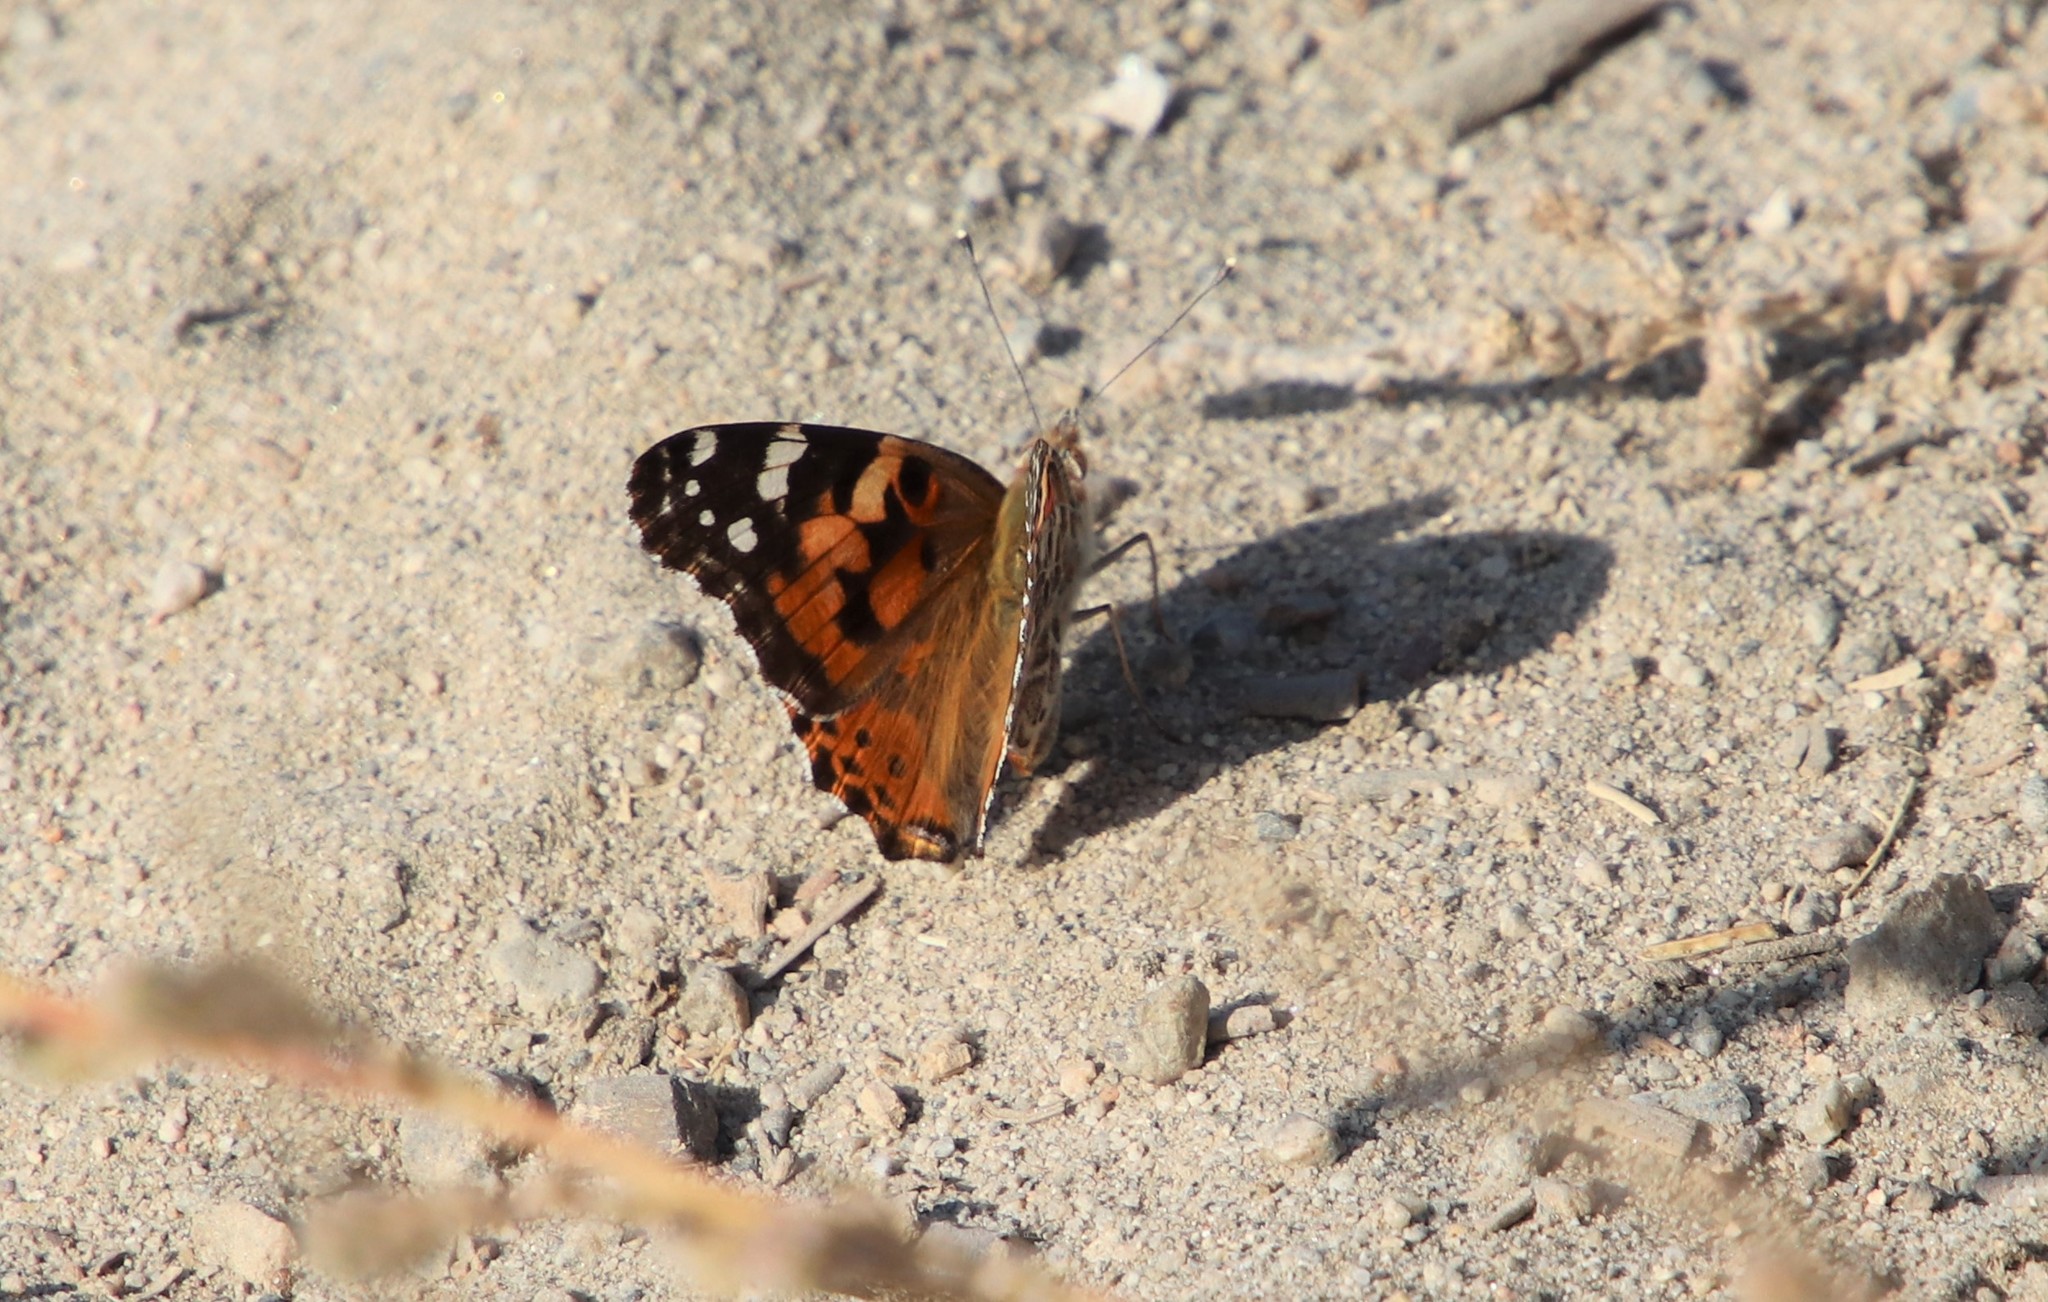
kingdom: Animalia
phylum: Arthropoda
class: Insecta
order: Lepidoptera
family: Nymphalidae
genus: Vanessa
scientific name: Vanessa cardui
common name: Painted lady
